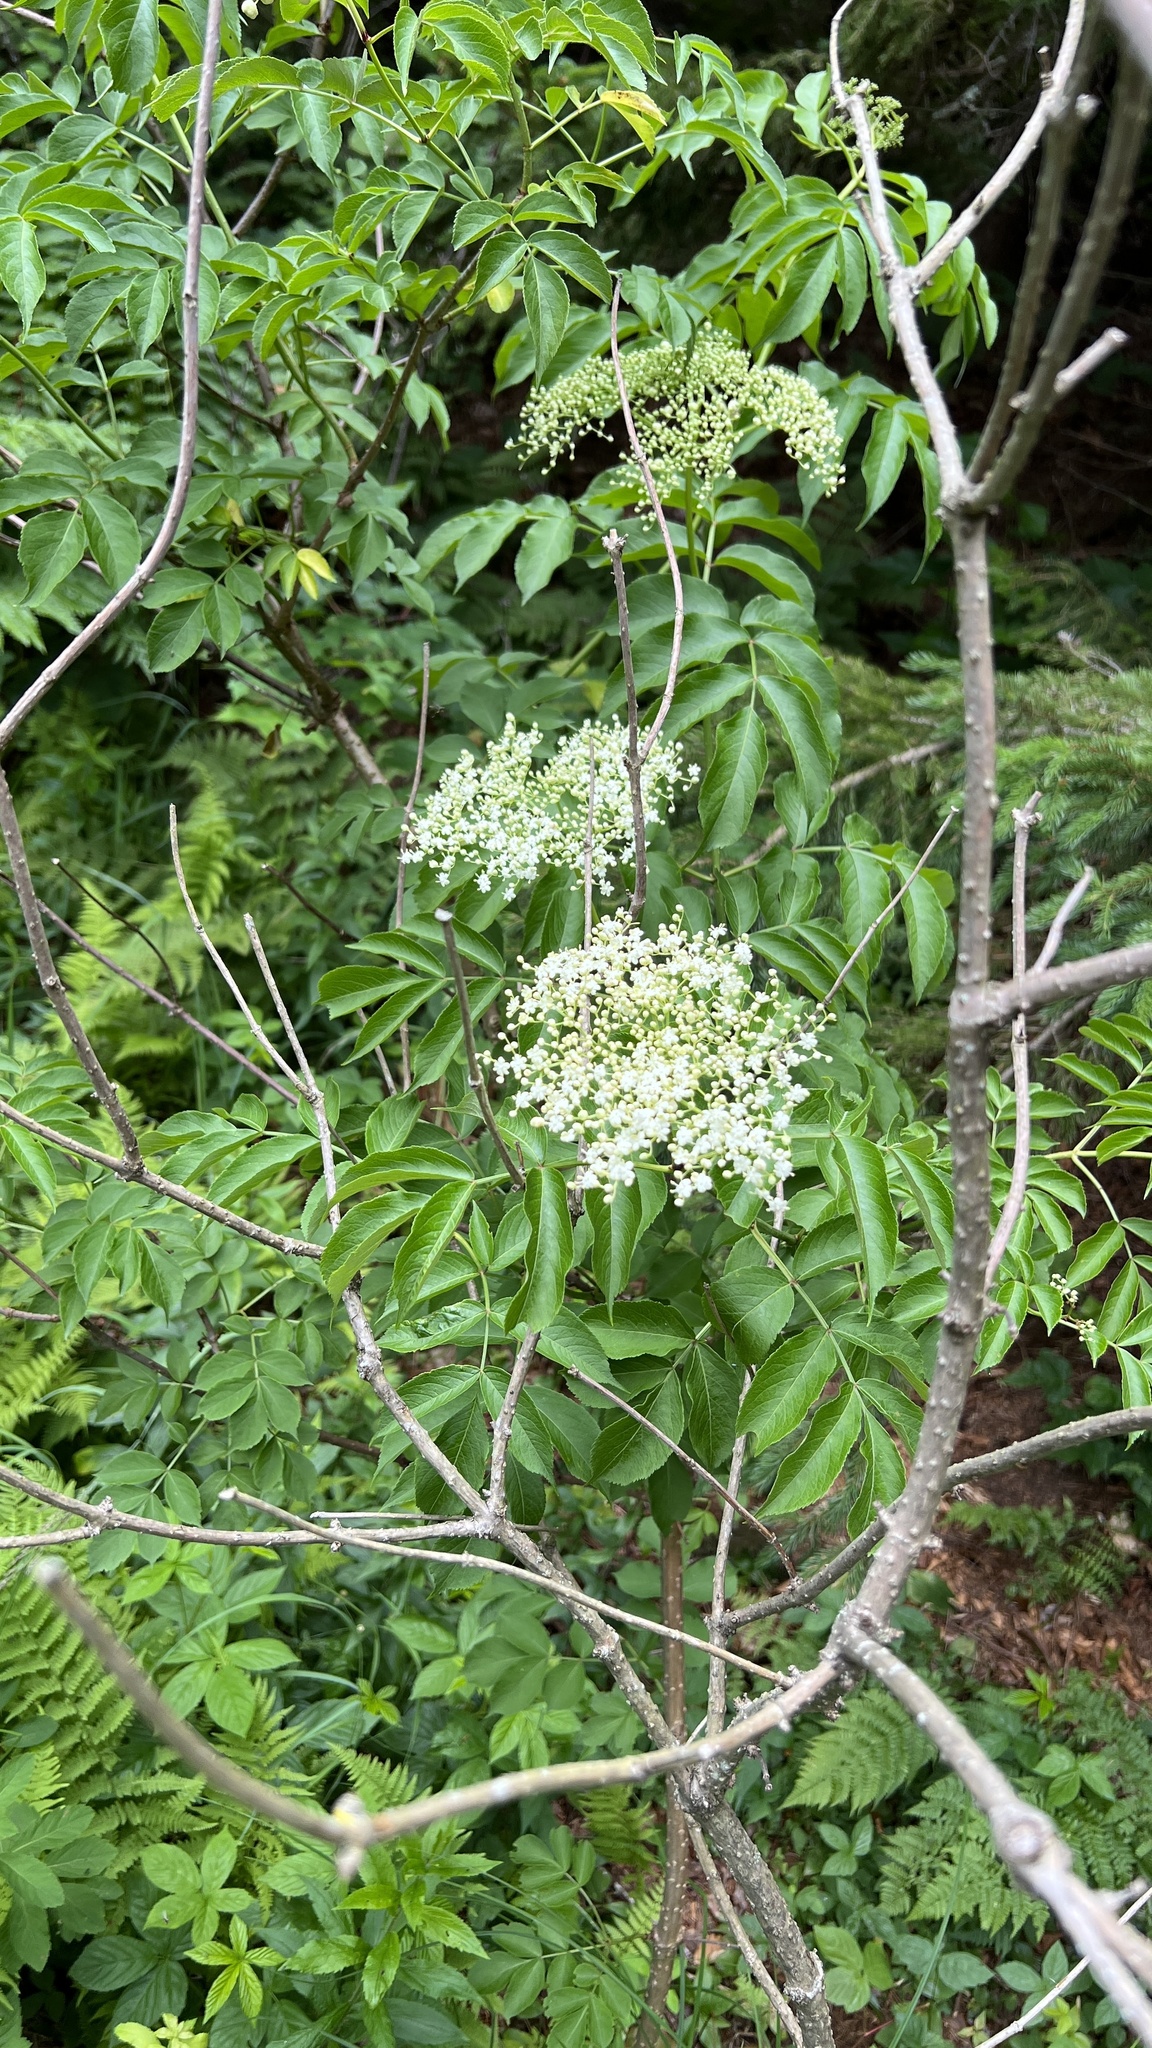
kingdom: Plantae
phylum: Tracheophyta
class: Magnoliopsida
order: Dipsacales
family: Viburnaceae
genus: Sambucus
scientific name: Sambucus canadensis
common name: American elder
